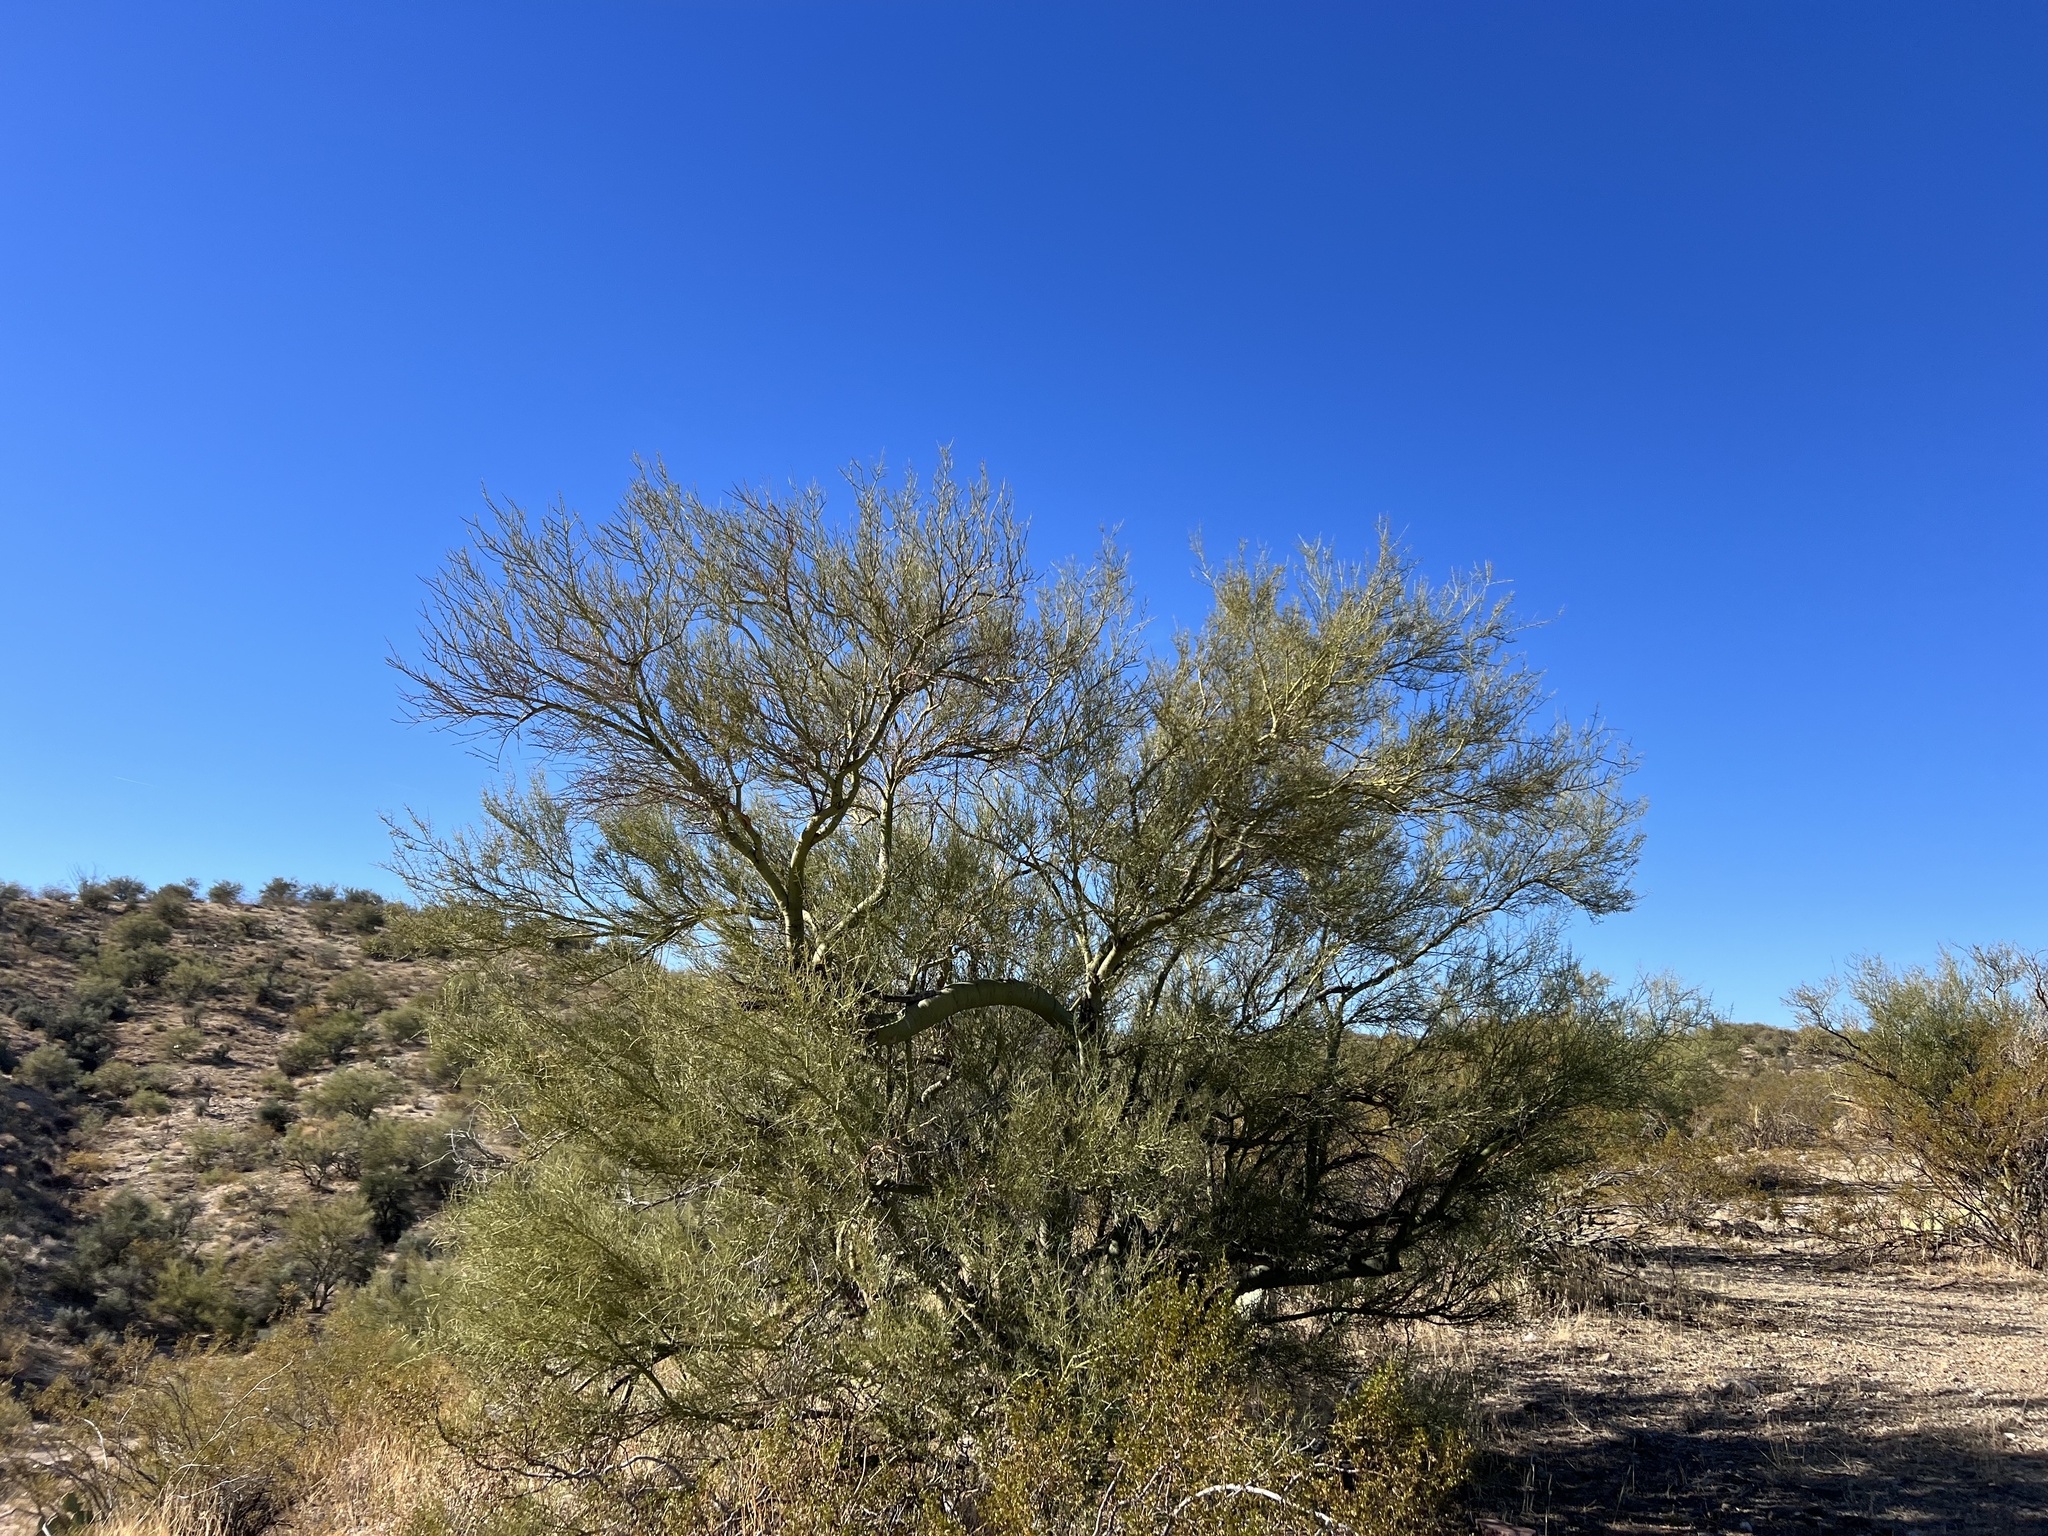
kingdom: Plantae
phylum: Tracheophyta
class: Magnoliopsida
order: Fabales
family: Fabaceae
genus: Parkinsonia
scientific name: Parkinsonia microphylla
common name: Yellow paloverde
